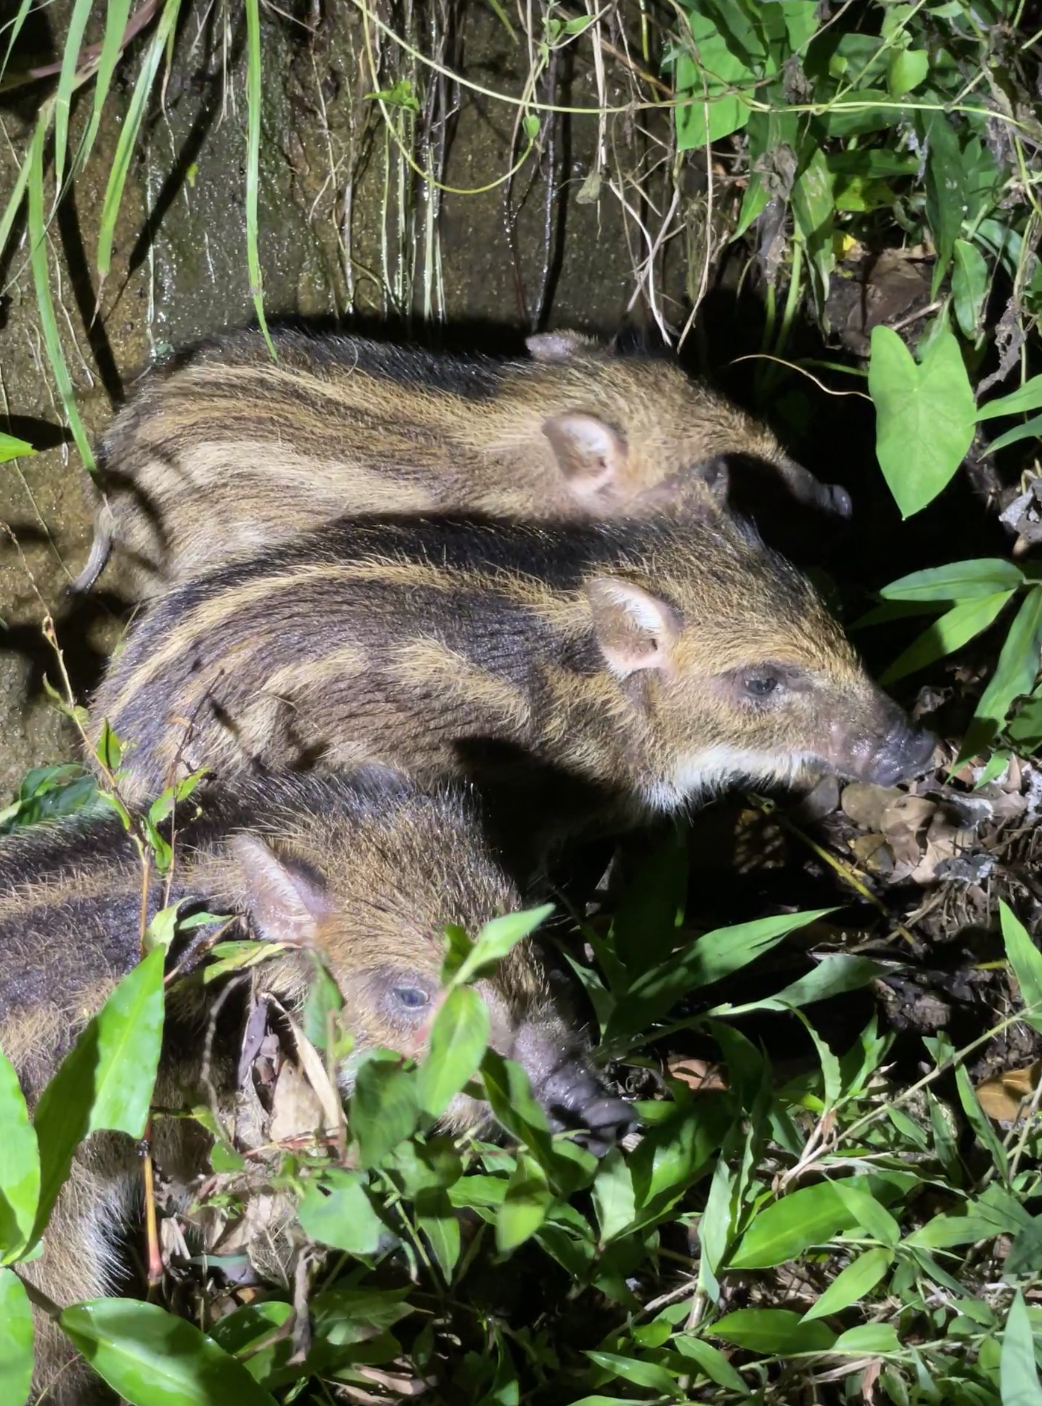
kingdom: Animalia
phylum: Chordata
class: Mammalia
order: Artiodactyla
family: Suidae
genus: Sus
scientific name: Sus scrofa
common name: Wild boar
